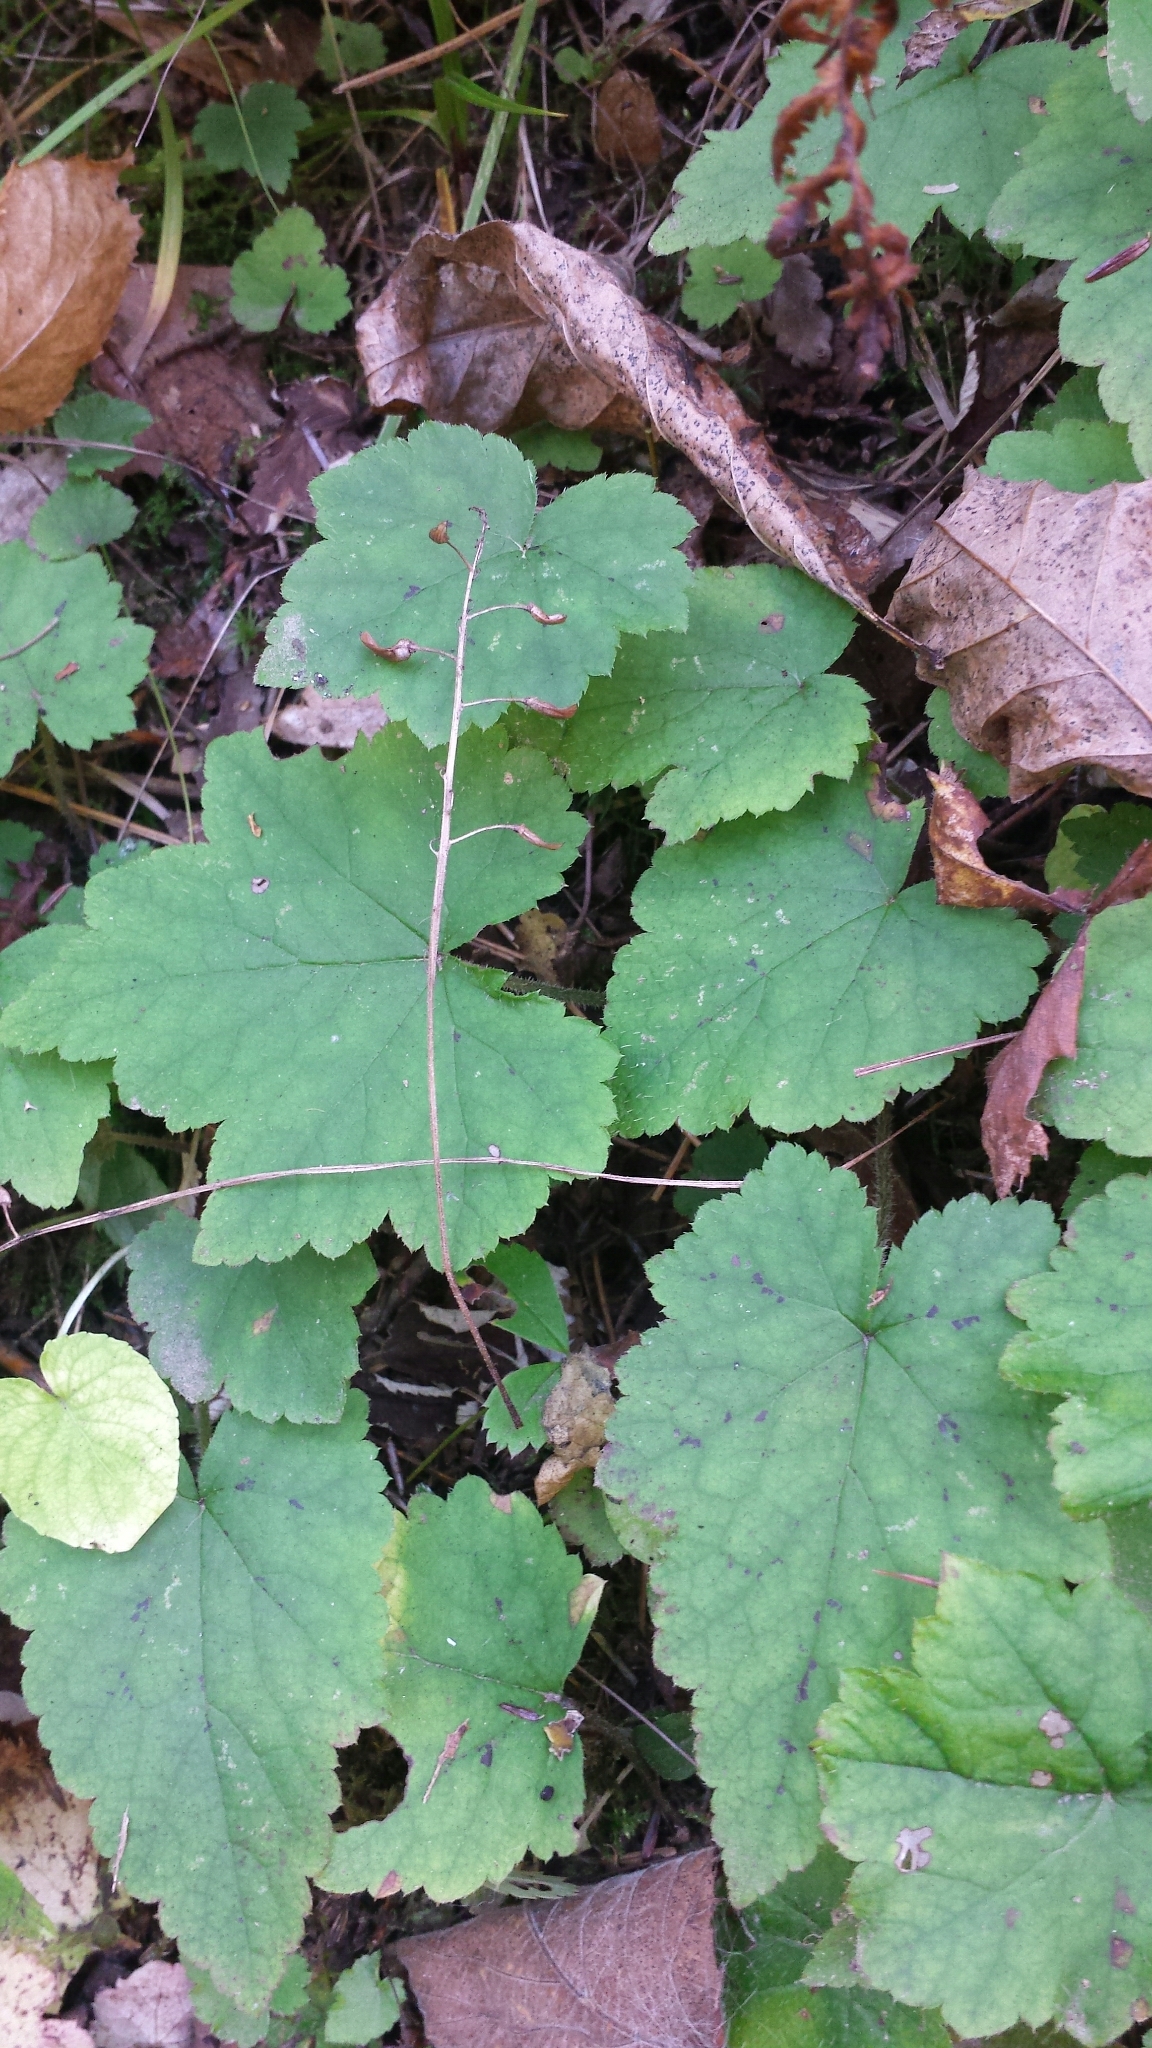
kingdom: Plantae
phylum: Tracheophyta
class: Magnoliopsida
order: Saxifragales
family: Saxifragaceae
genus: Tiarella
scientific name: Tiarella stolonifera
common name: Stoloniferous foamflower
